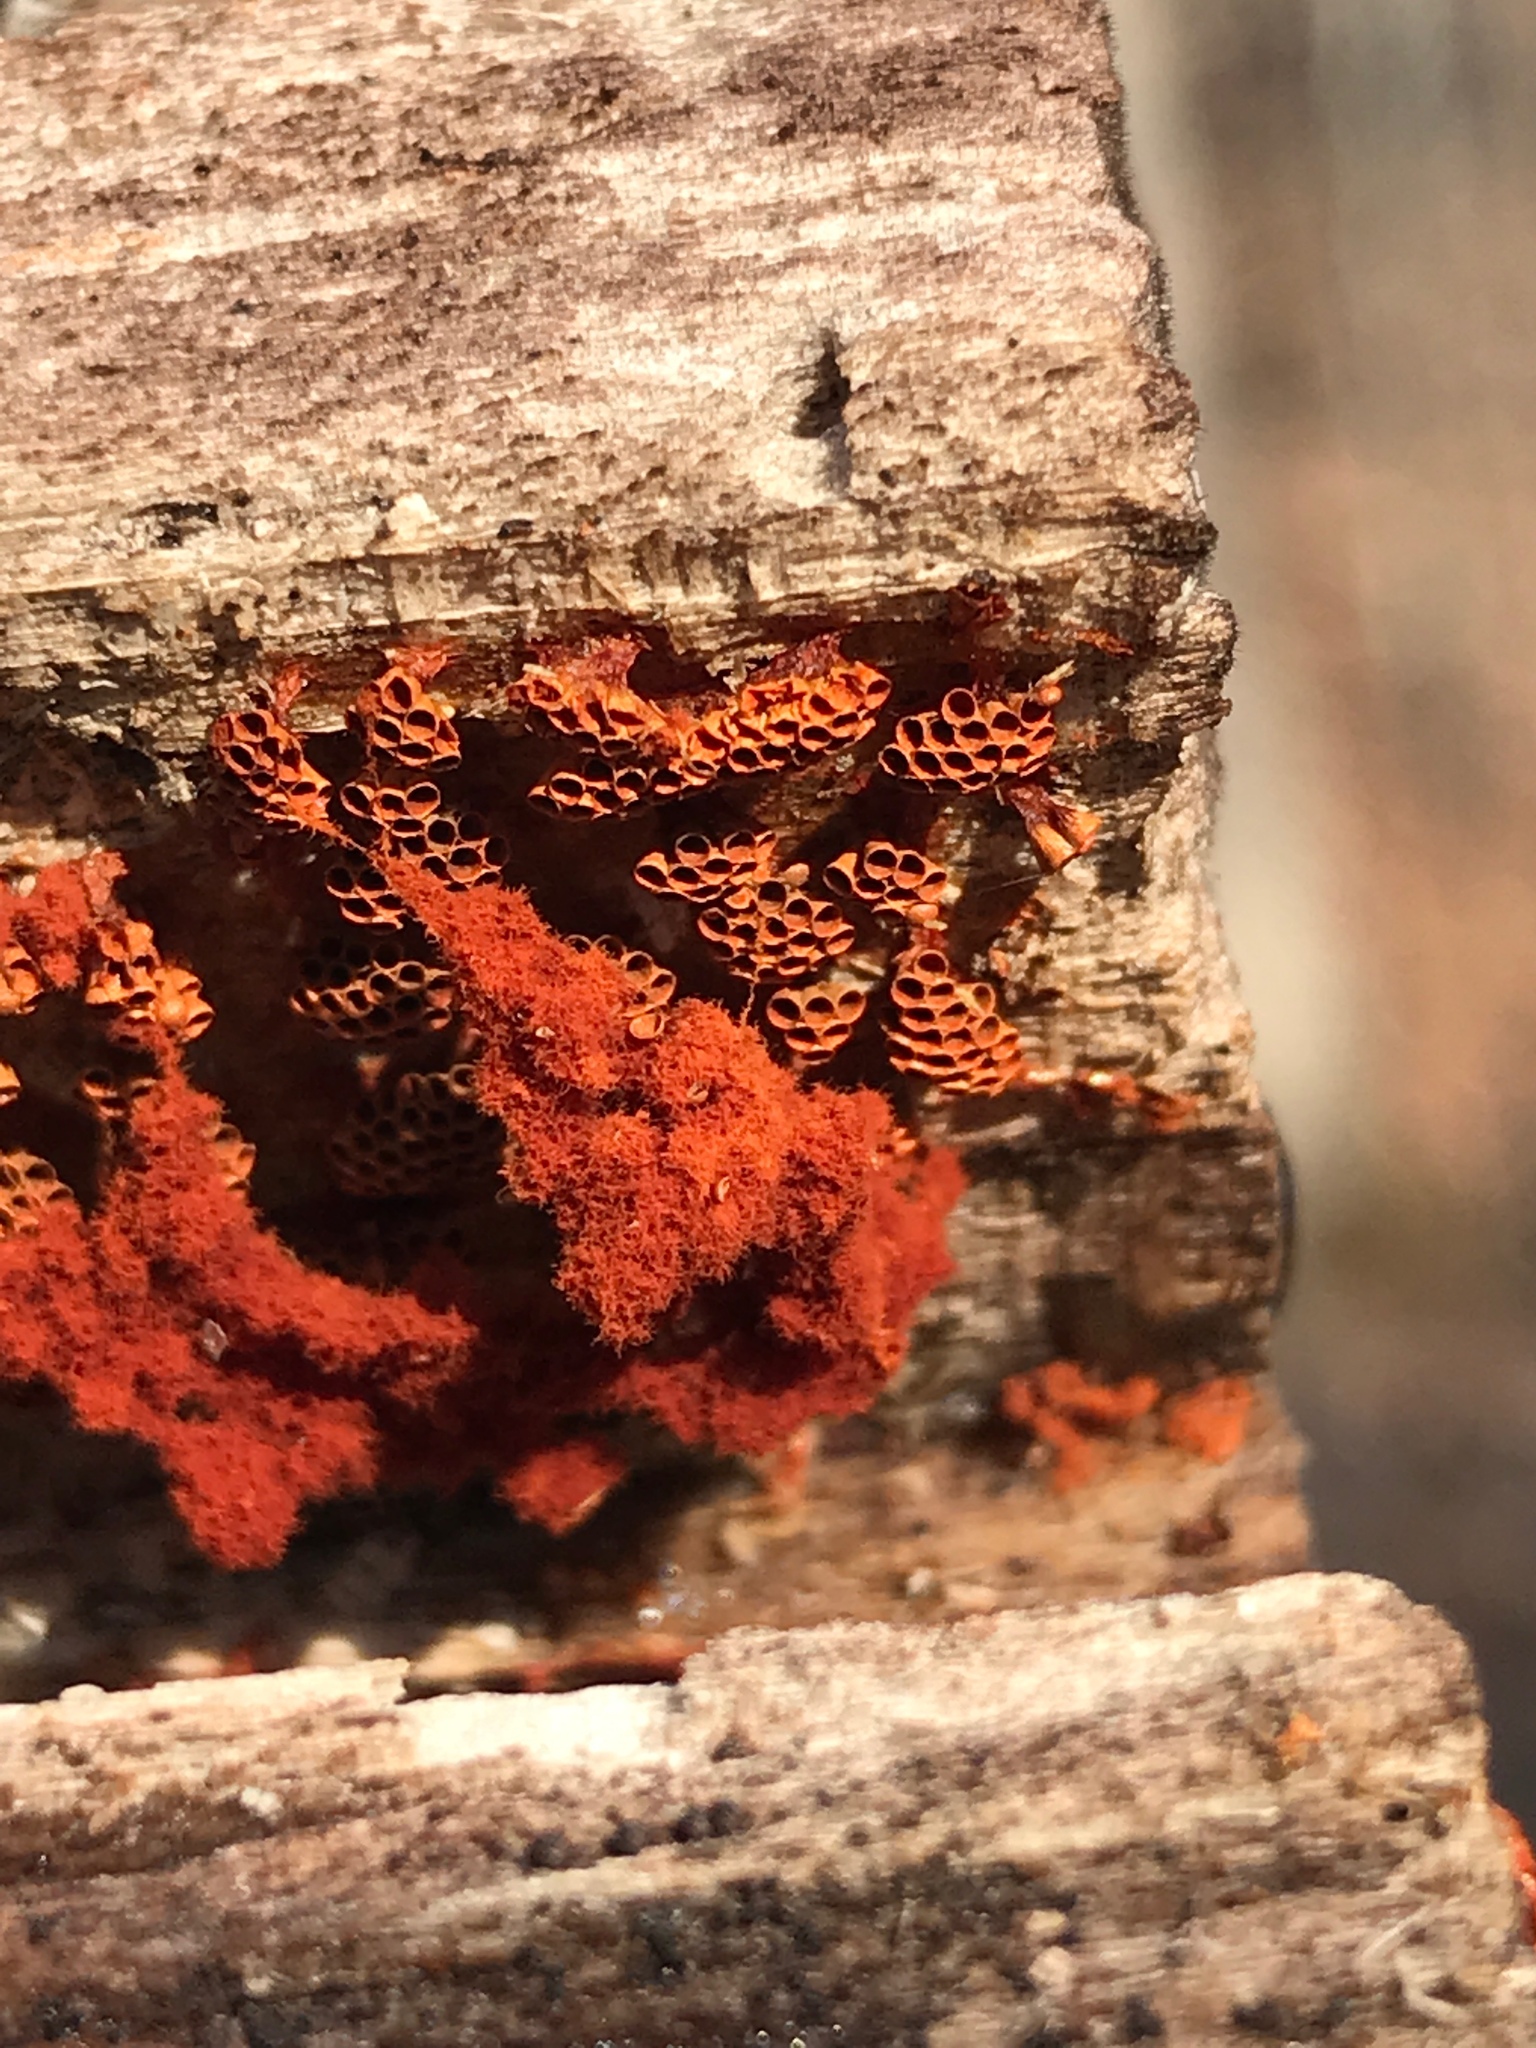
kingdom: Protozoa
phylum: Mycetozoa
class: Myxomycetes
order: Trichiales
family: Trichiaceae
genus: Metatrichia
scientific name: Metatrichia vesparia
